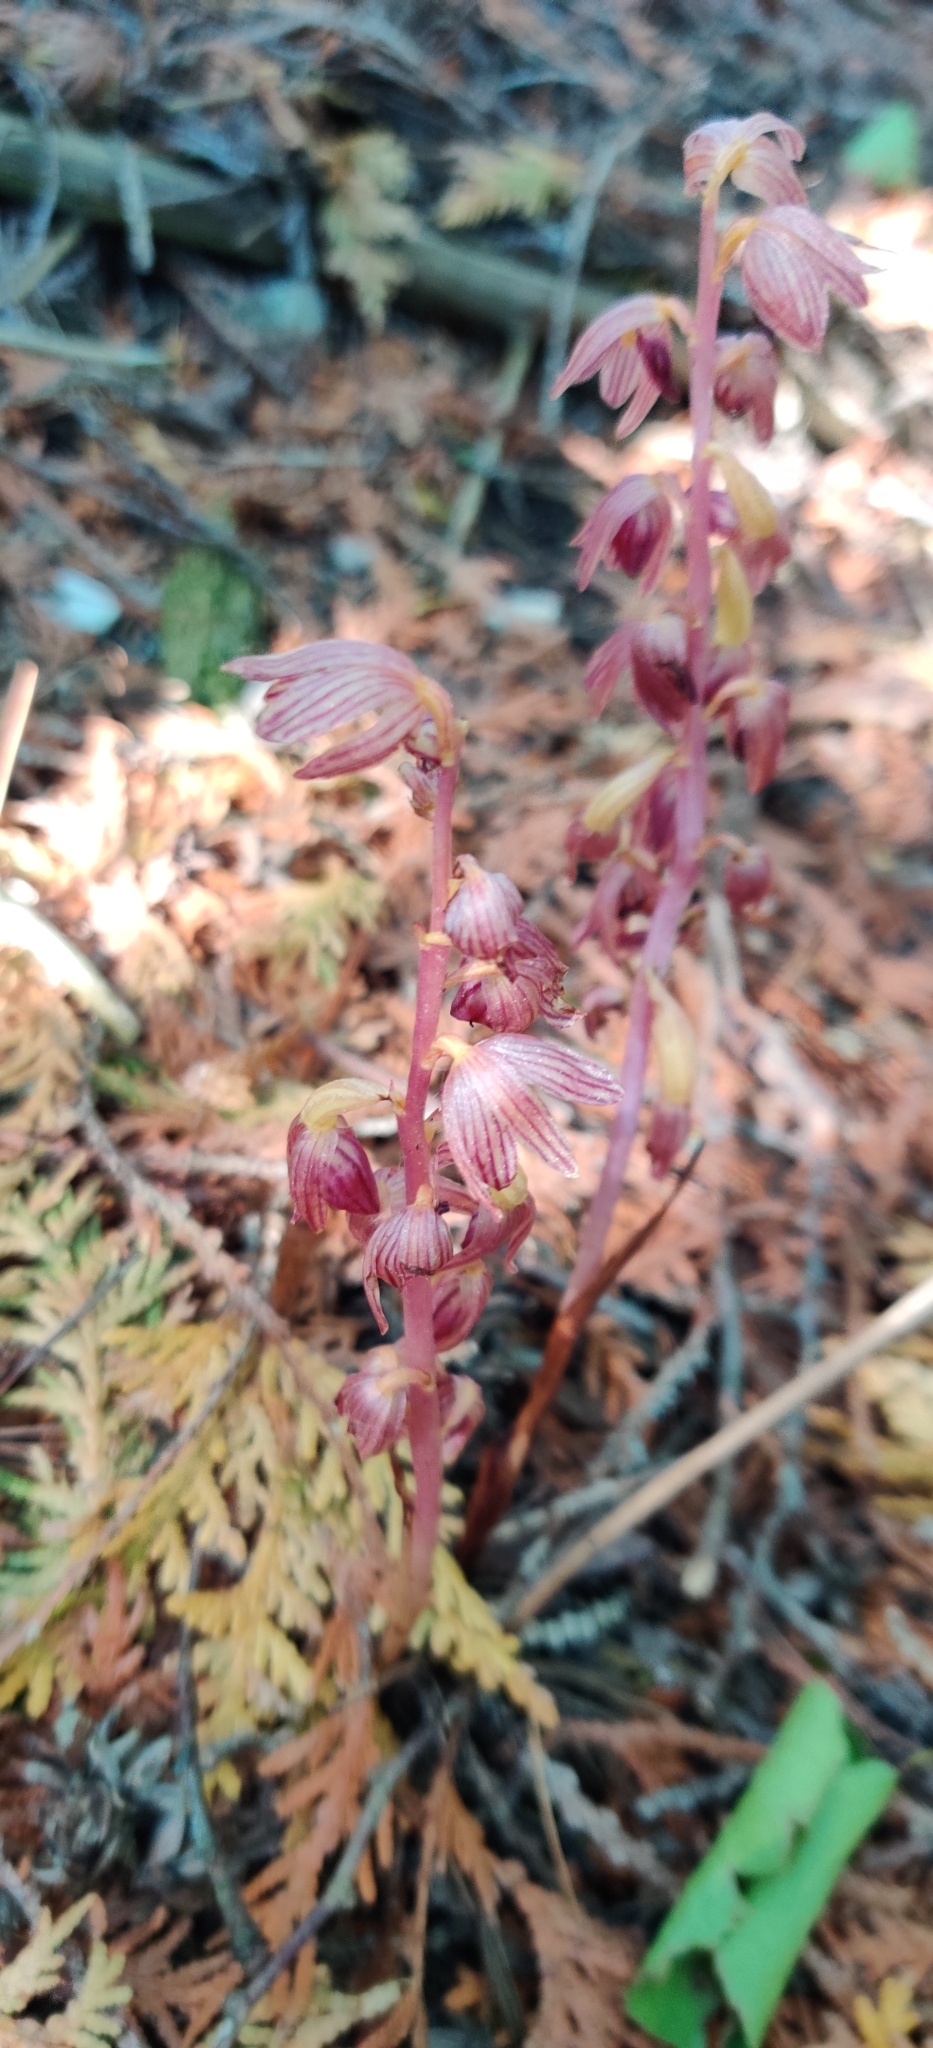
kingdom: Plantae
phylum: Tracheophyta
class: Liliopsida
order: Asparagales
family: Orchidaceae
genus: Corallorhiza
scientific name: Corallorhiza striata
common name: Hooded coralroot
